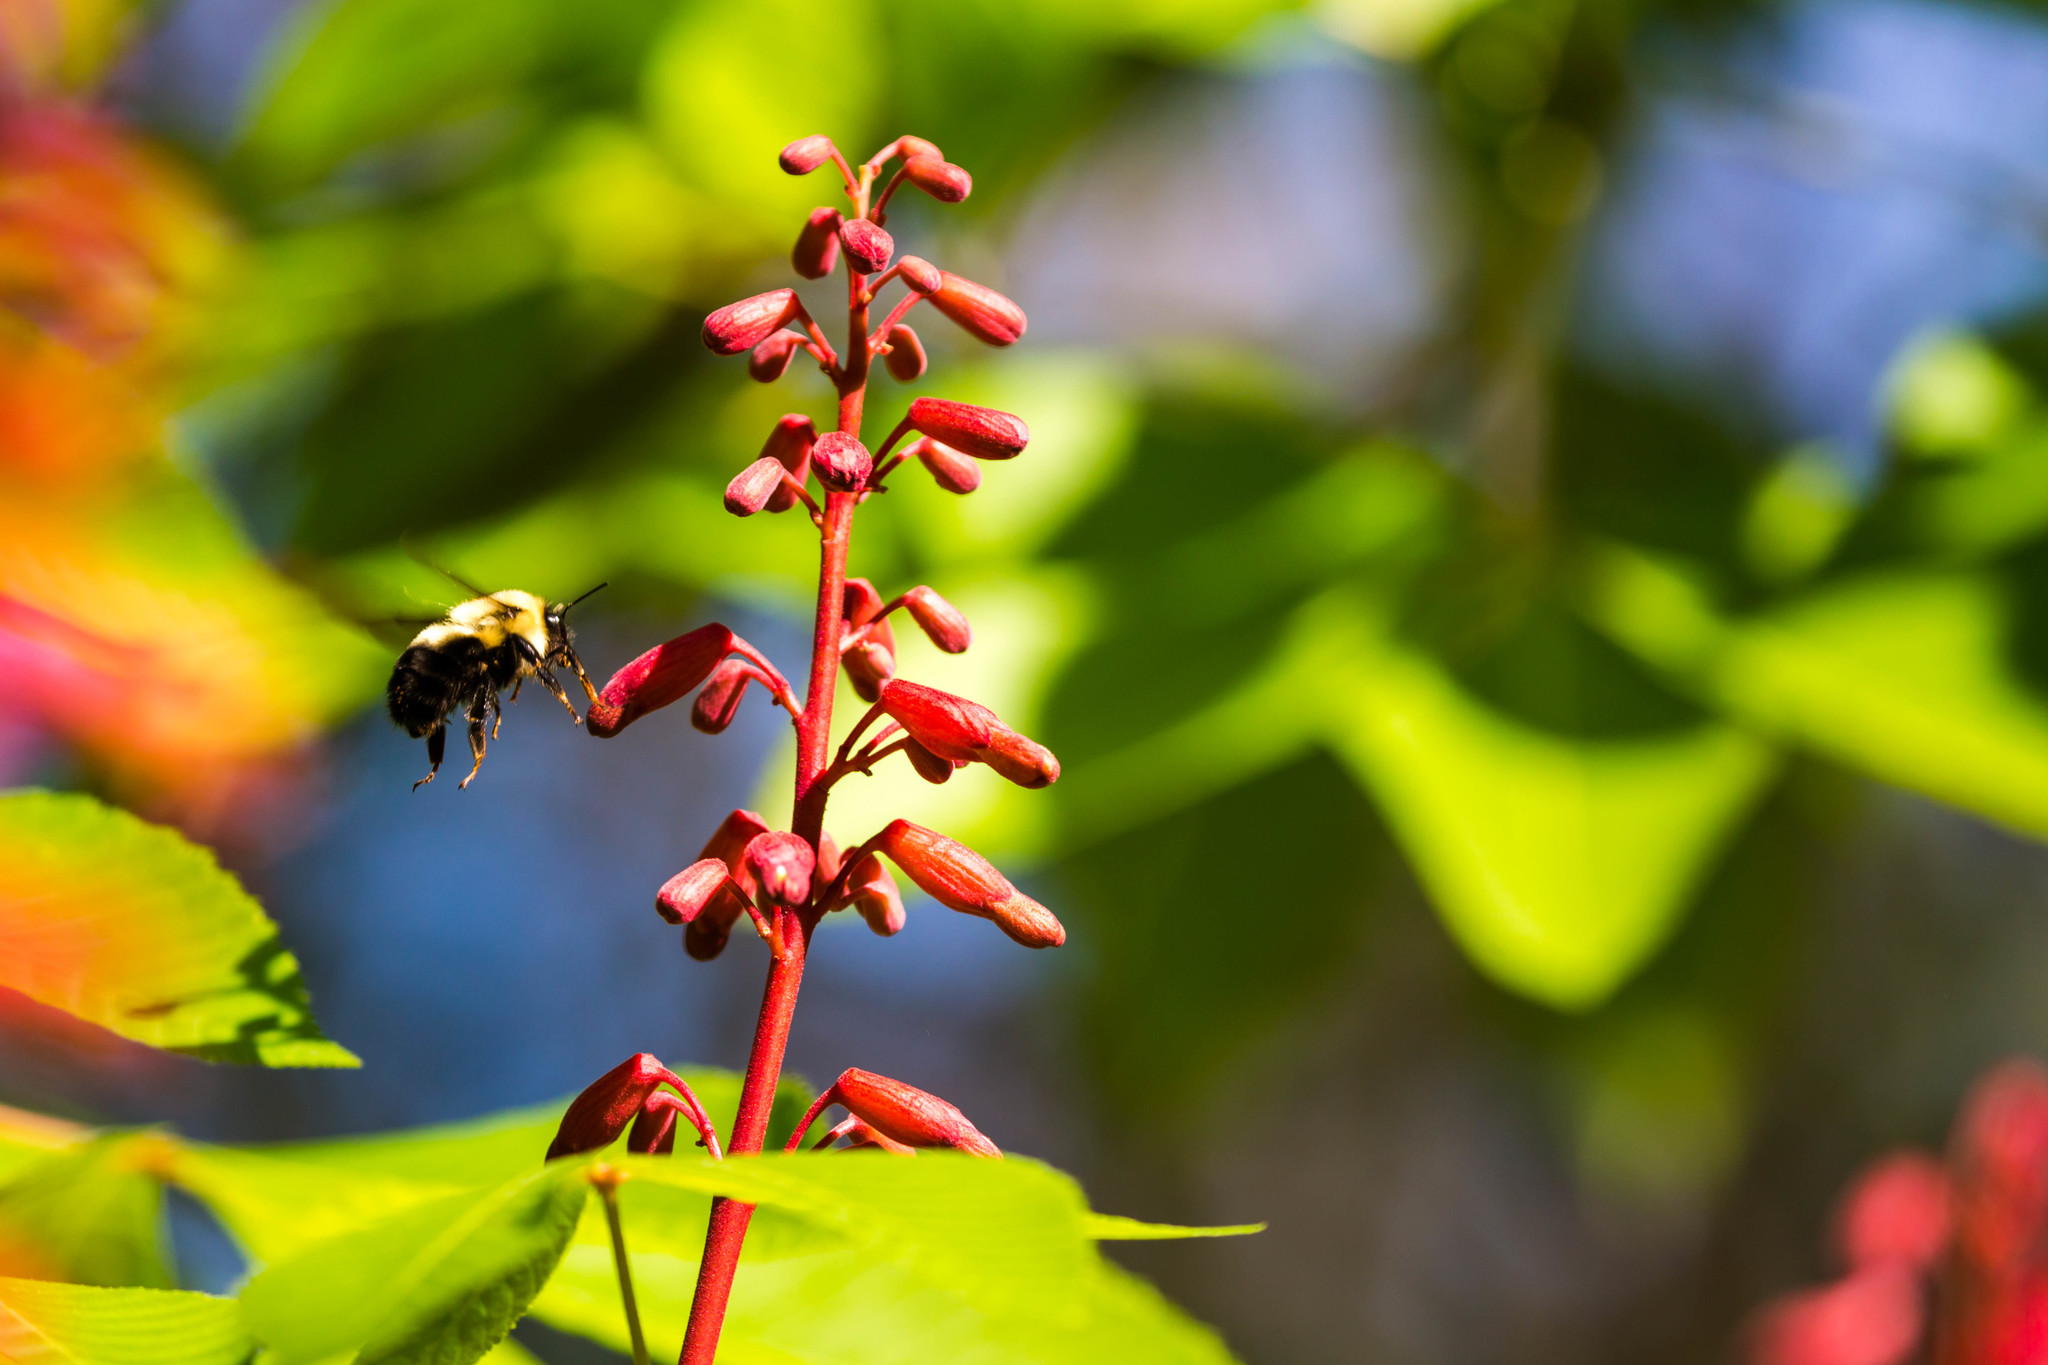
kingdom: Animalia
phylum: Arthropoda
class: Insecta
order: Hymenoptera
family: Apidae
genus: Bombus
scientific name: Bombus bimaculatus
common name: Two-spotted bumble bee
